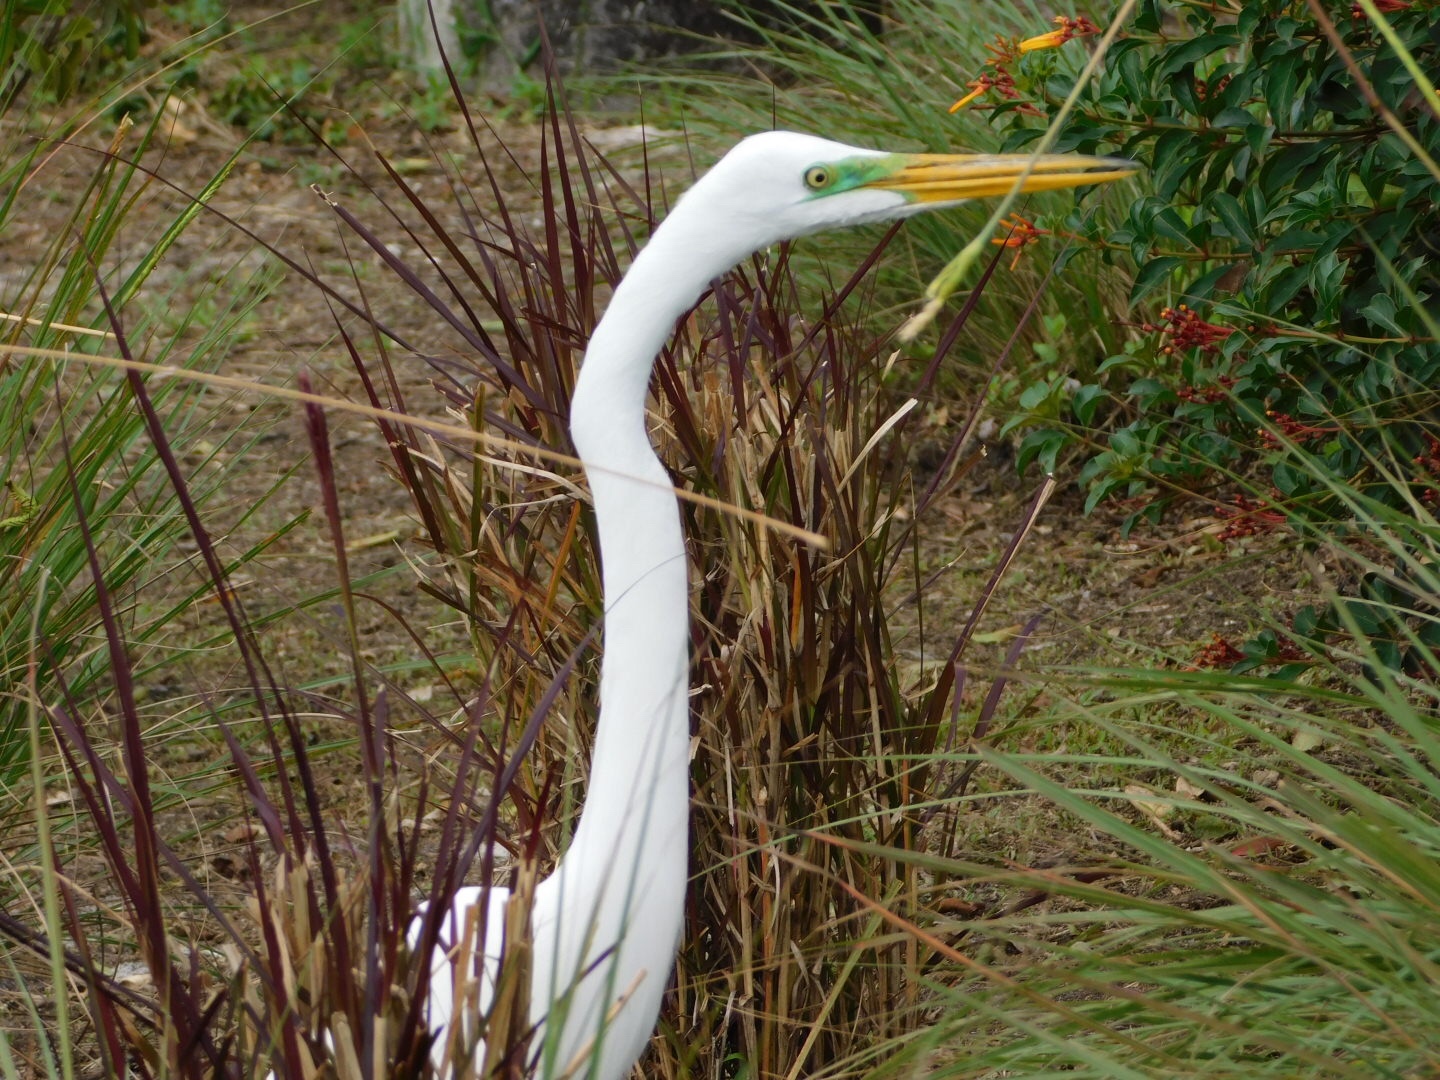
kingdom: Animalia
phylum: Chordata
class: Aves
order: Pelecaniformes
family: Ardeidae
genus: Ardea
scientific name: Ardea alba
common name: Great egret
